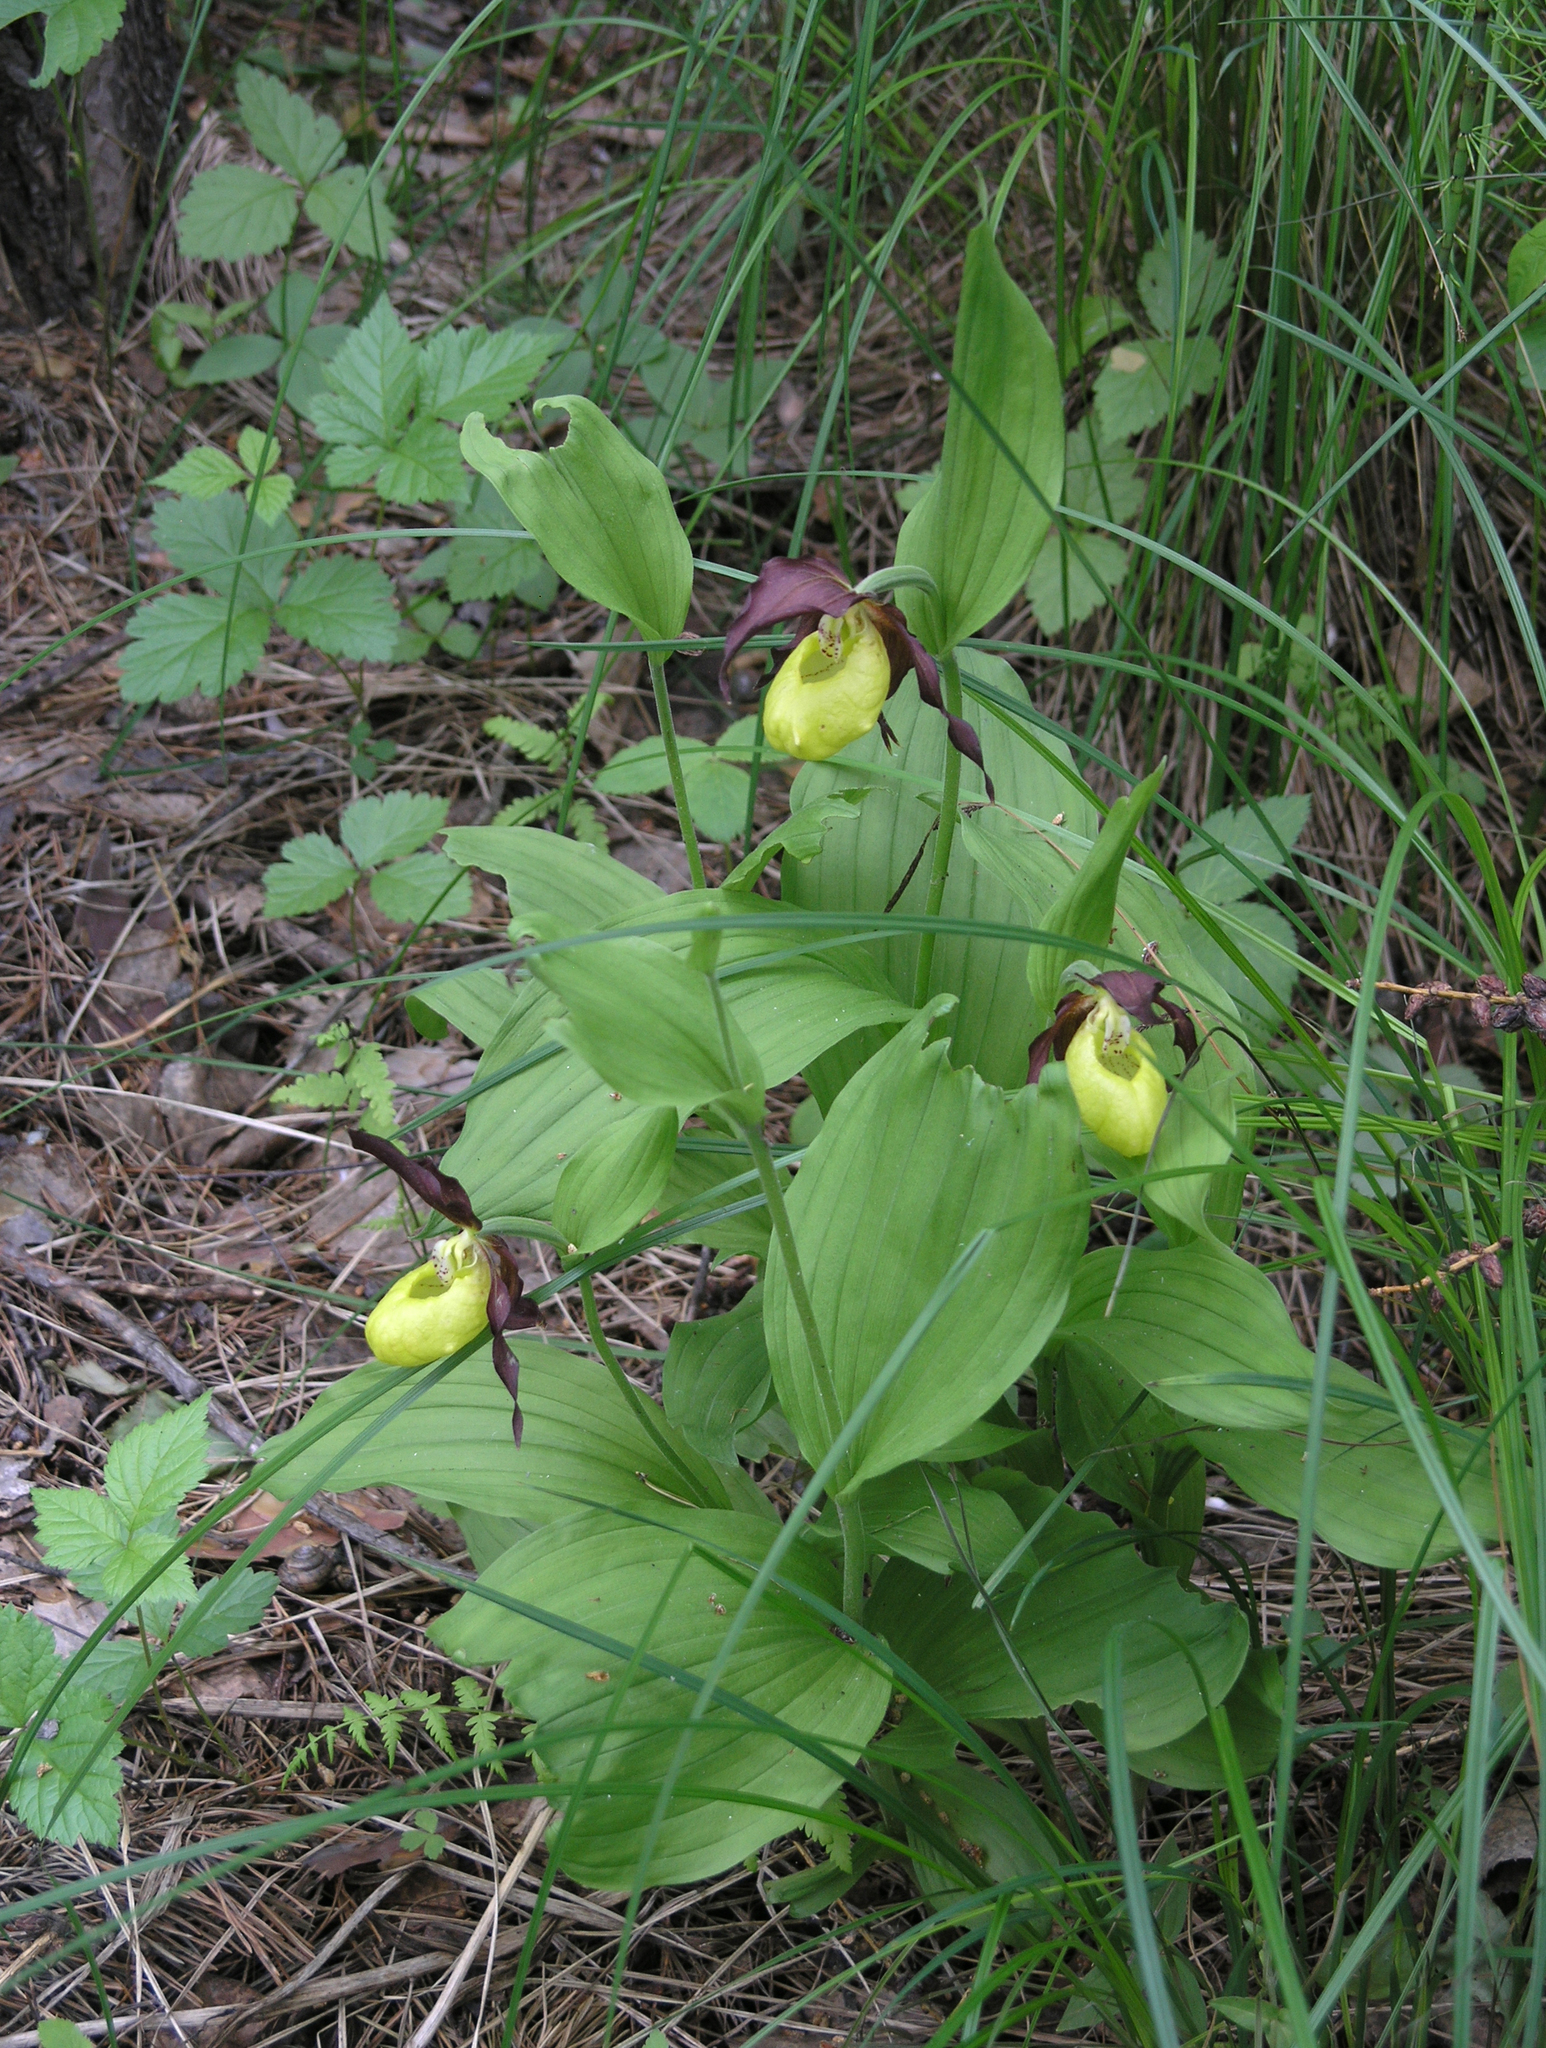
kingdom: Plantae
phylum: Tracheophyta
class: Liliopsida
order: Asparagales
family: Orchidaceae
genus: Cypripedium
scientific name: Cypripedium calceolus
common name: Lady's-slipper
